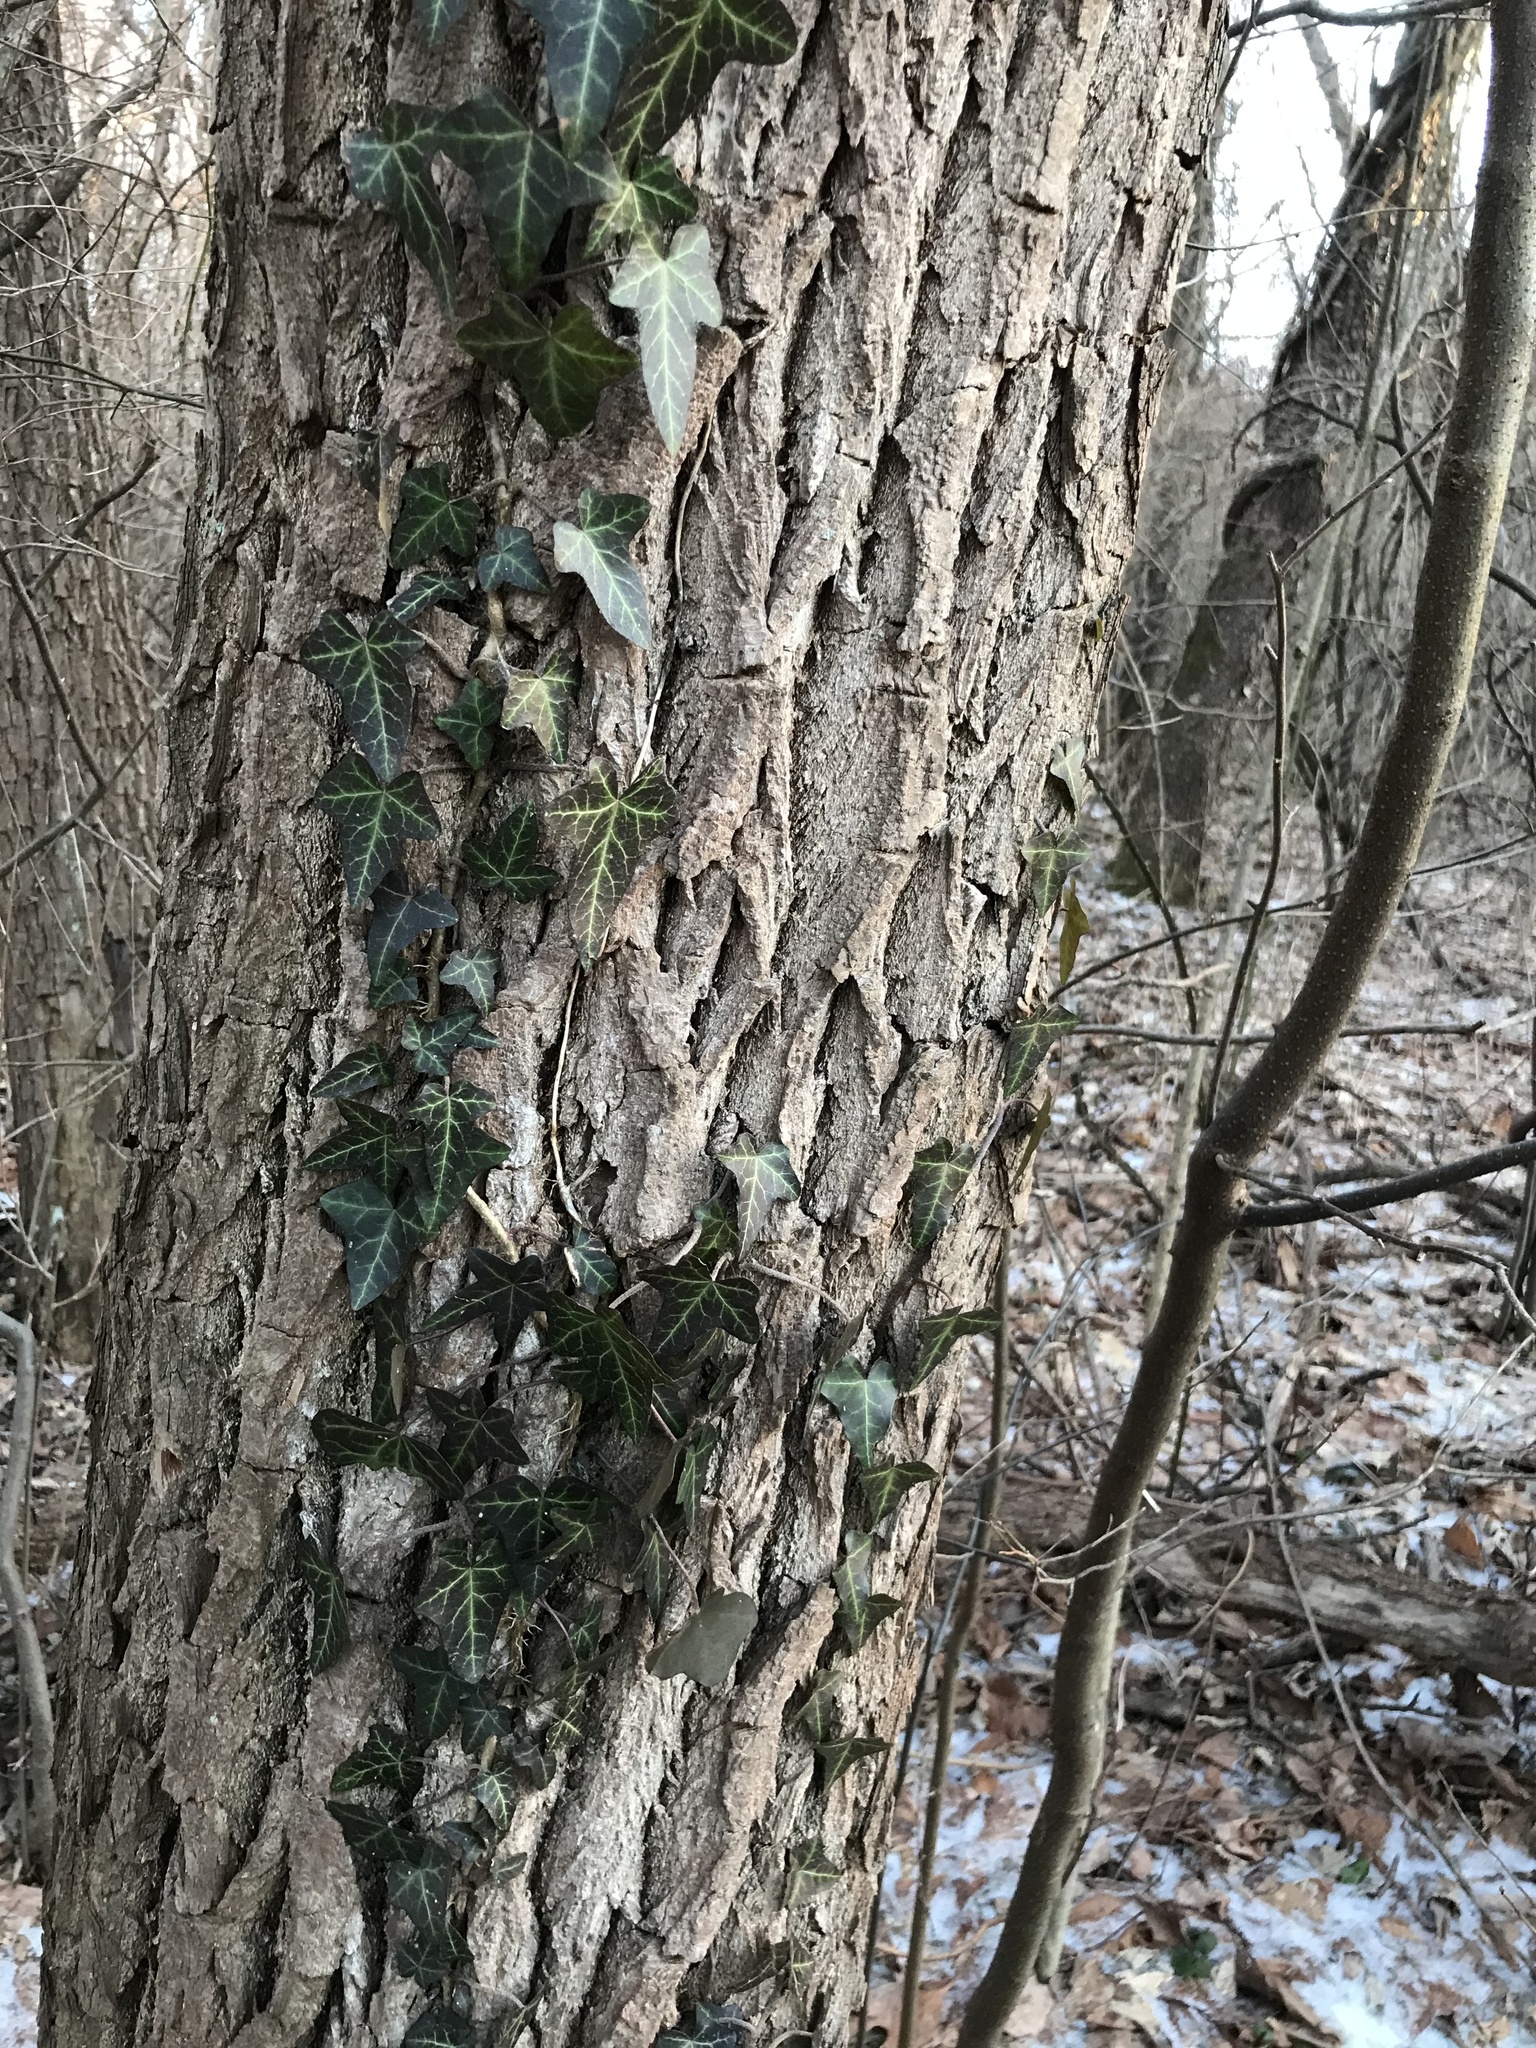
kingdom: Plantae
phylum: Tracheophyta
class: Magnoliopsida
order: Apiales
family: Araliaceae
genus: Hedera
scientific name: Hedera helix
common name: Ivy
